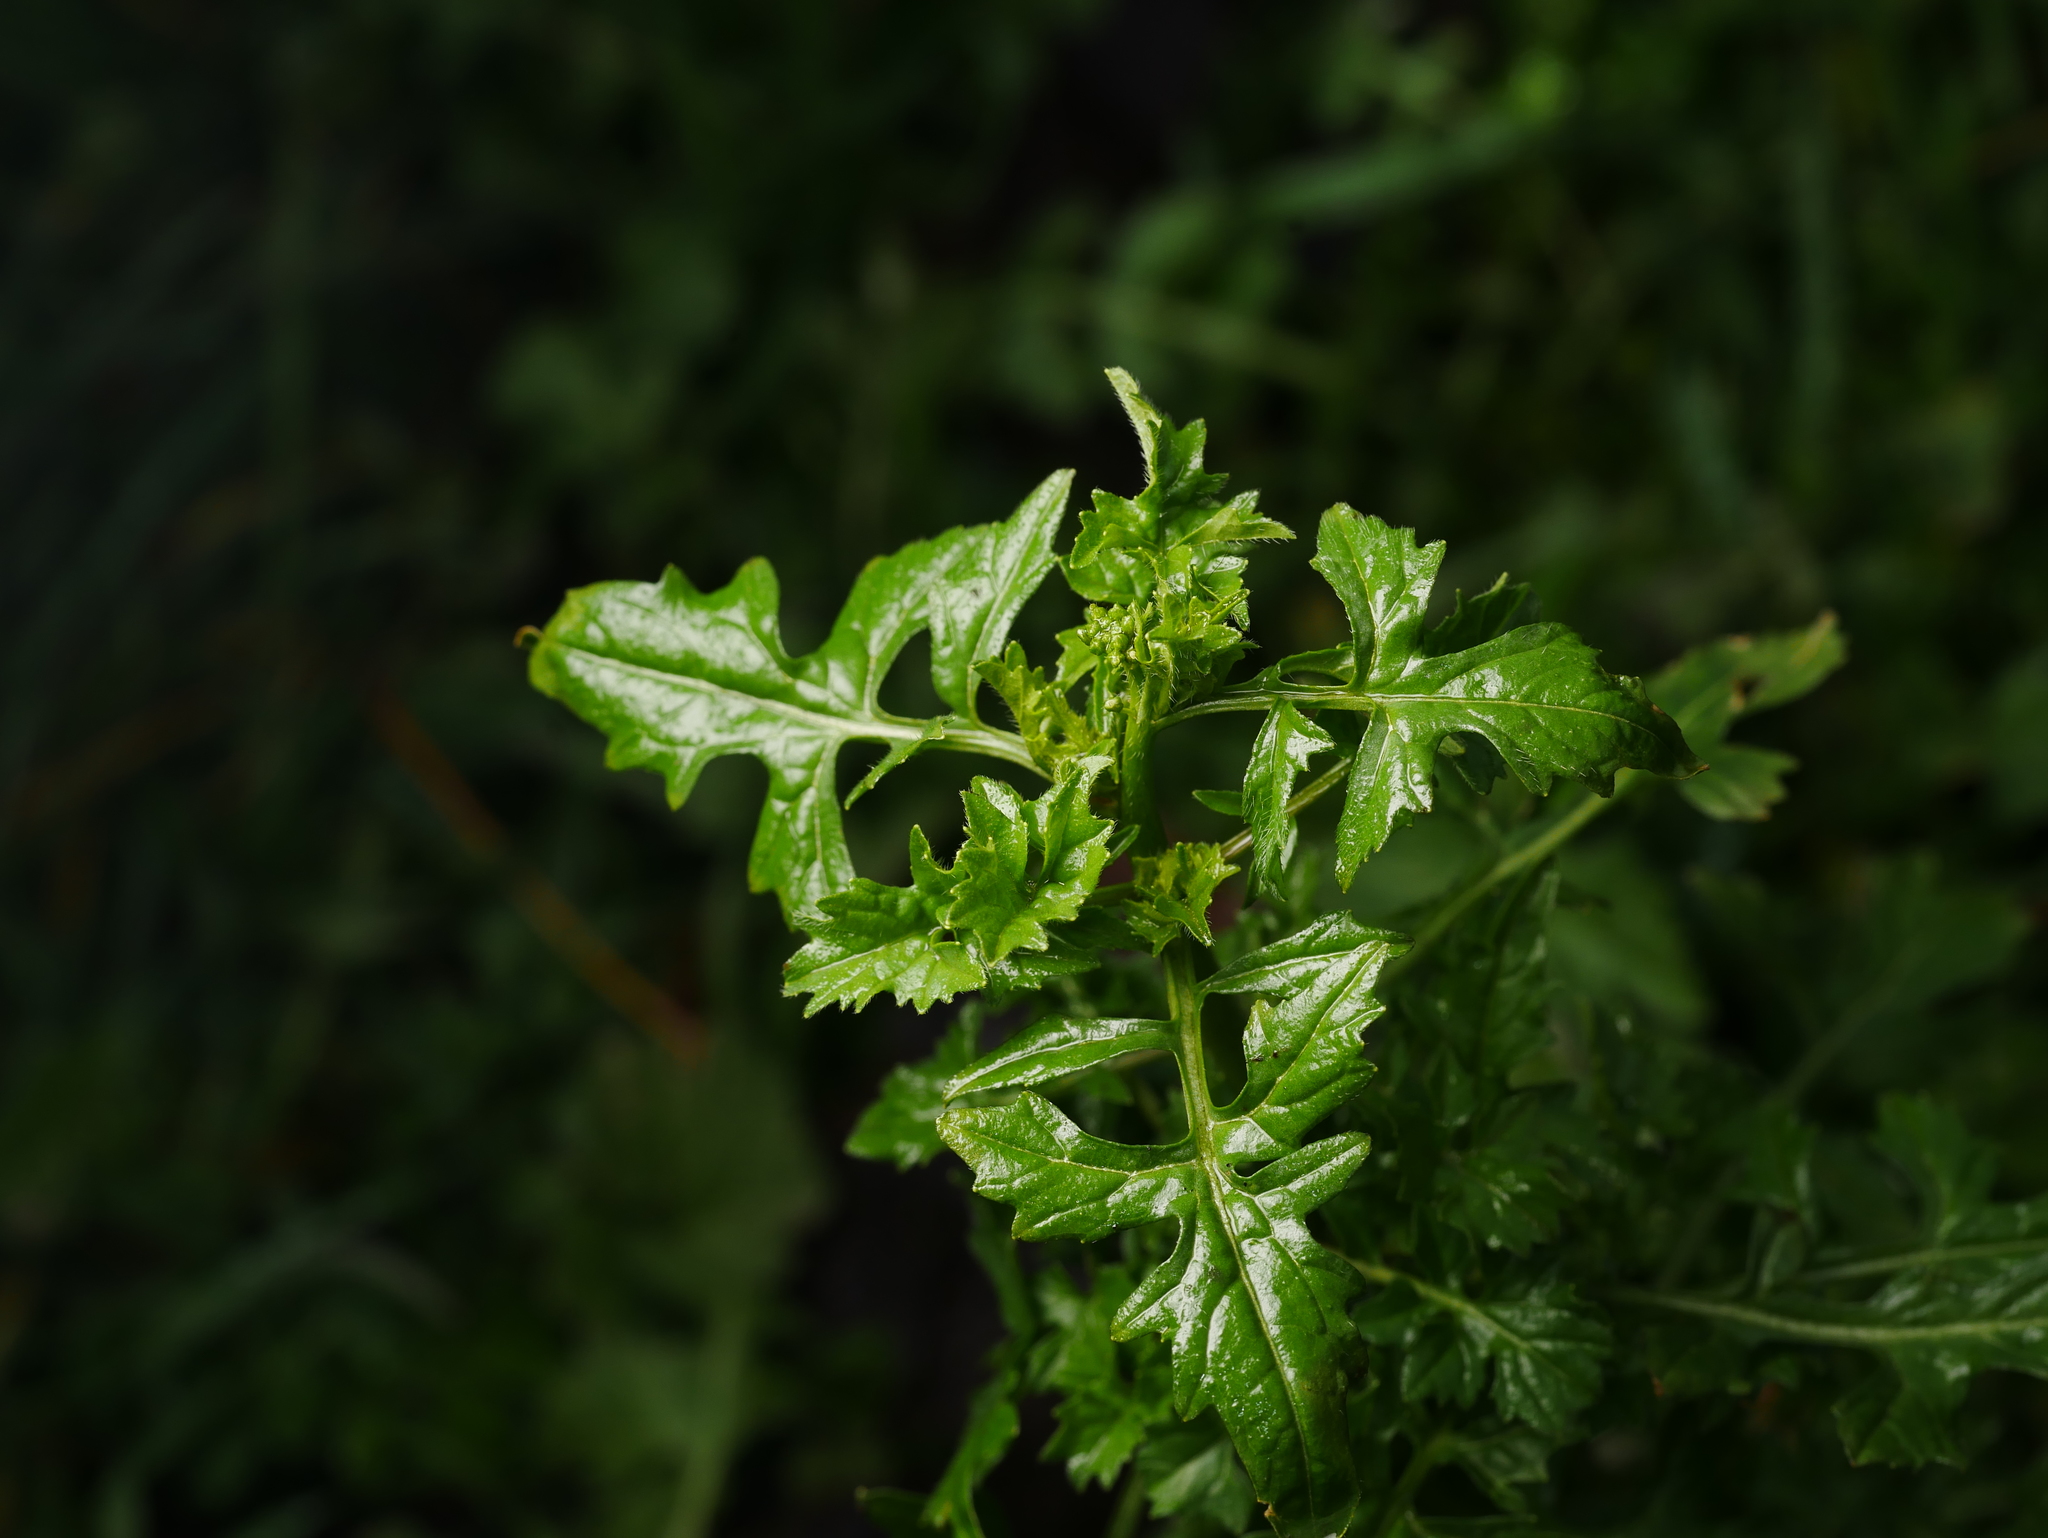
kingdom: Plantae
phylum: Tracheophyta
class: Magnoliopsida
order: Brassicales
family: Brassicaceae
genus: Rorippa
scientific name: Rorippa palustris
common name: Marsh yellow-cress
